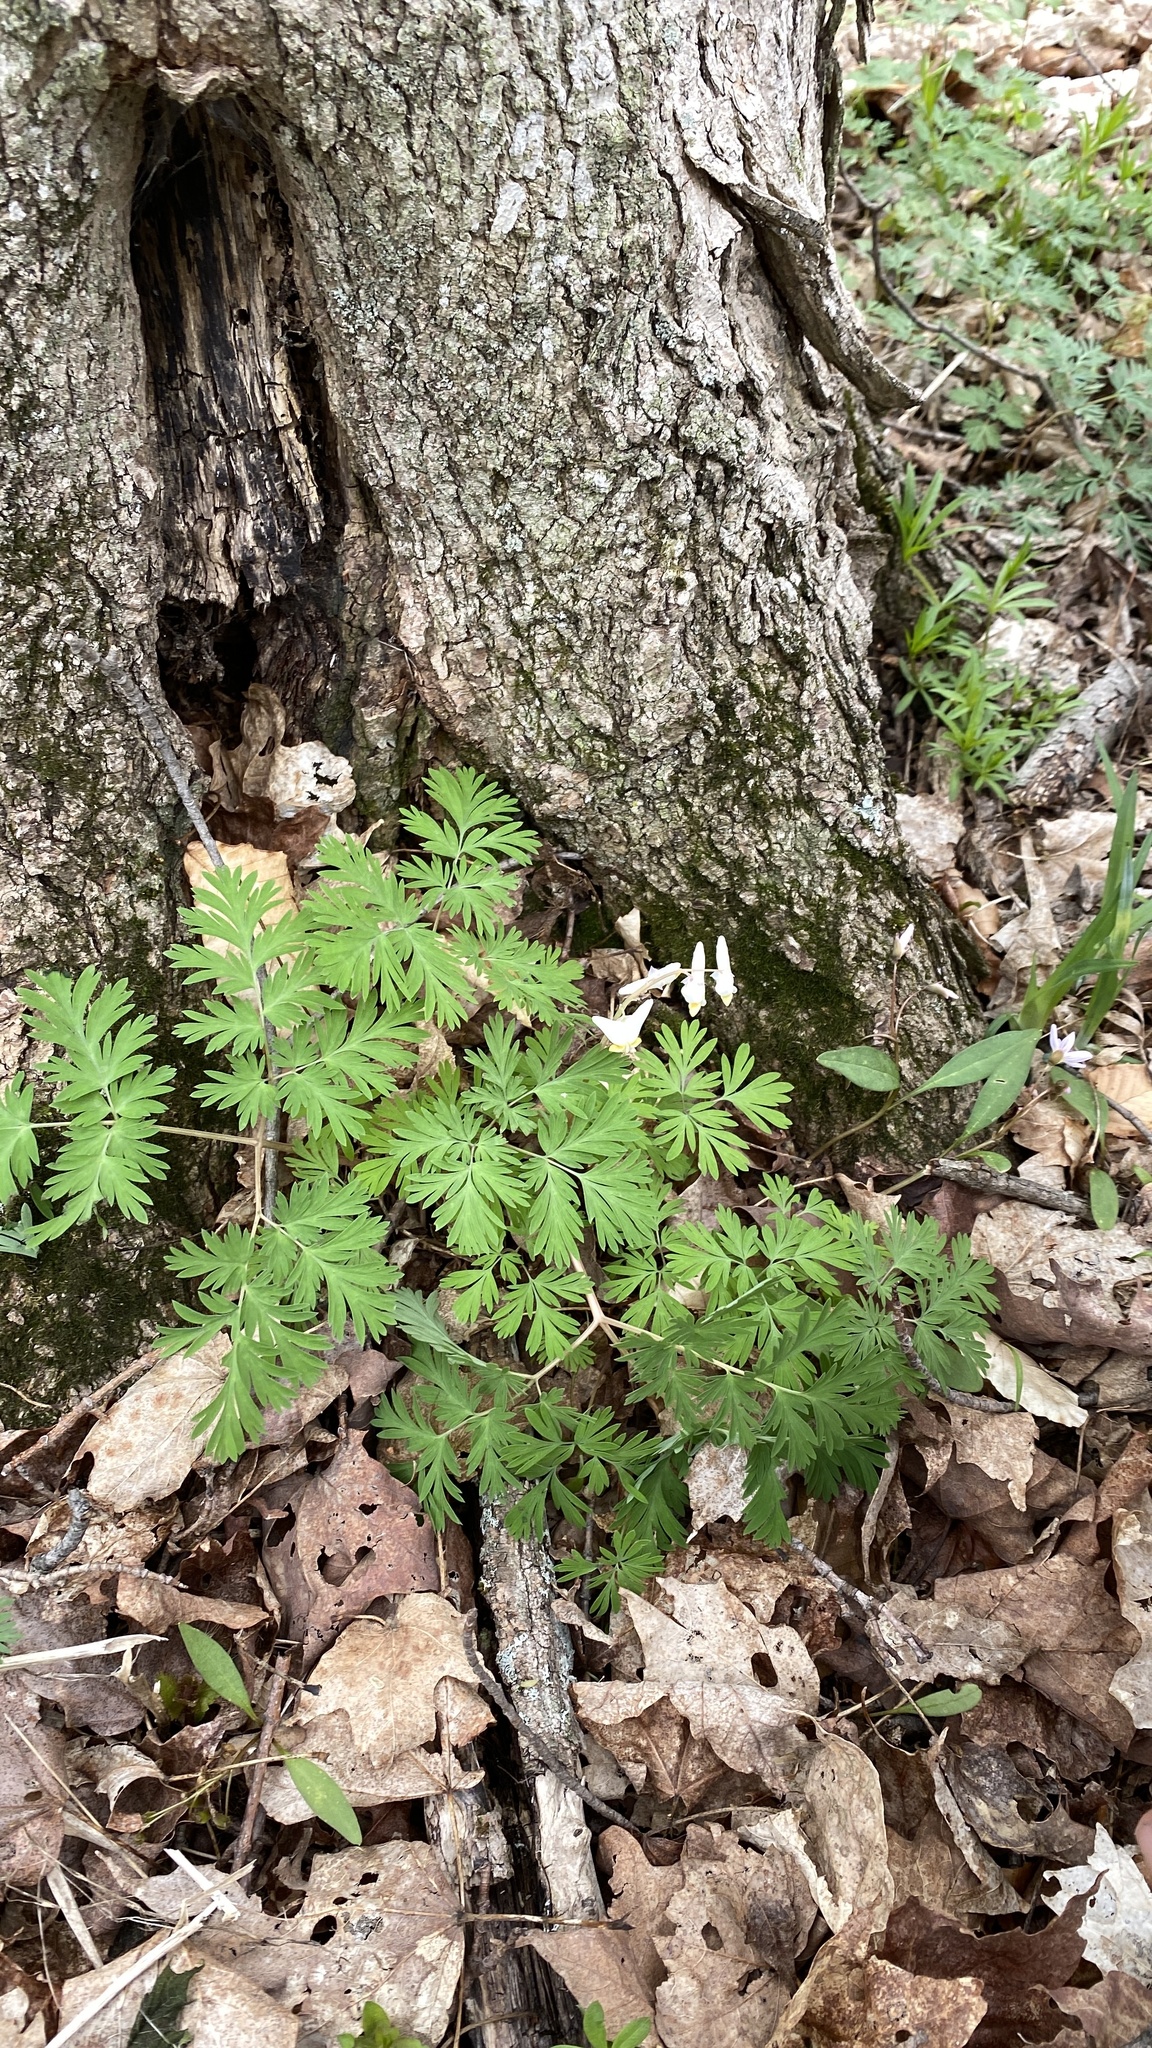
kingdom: Plantae
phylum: Tracheophyta
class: Magnoliopsida
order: Ranunculales
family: Papaveraceae
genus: Dicentra
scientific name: Dicentra cucullaria
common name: Dutchman's breeches
